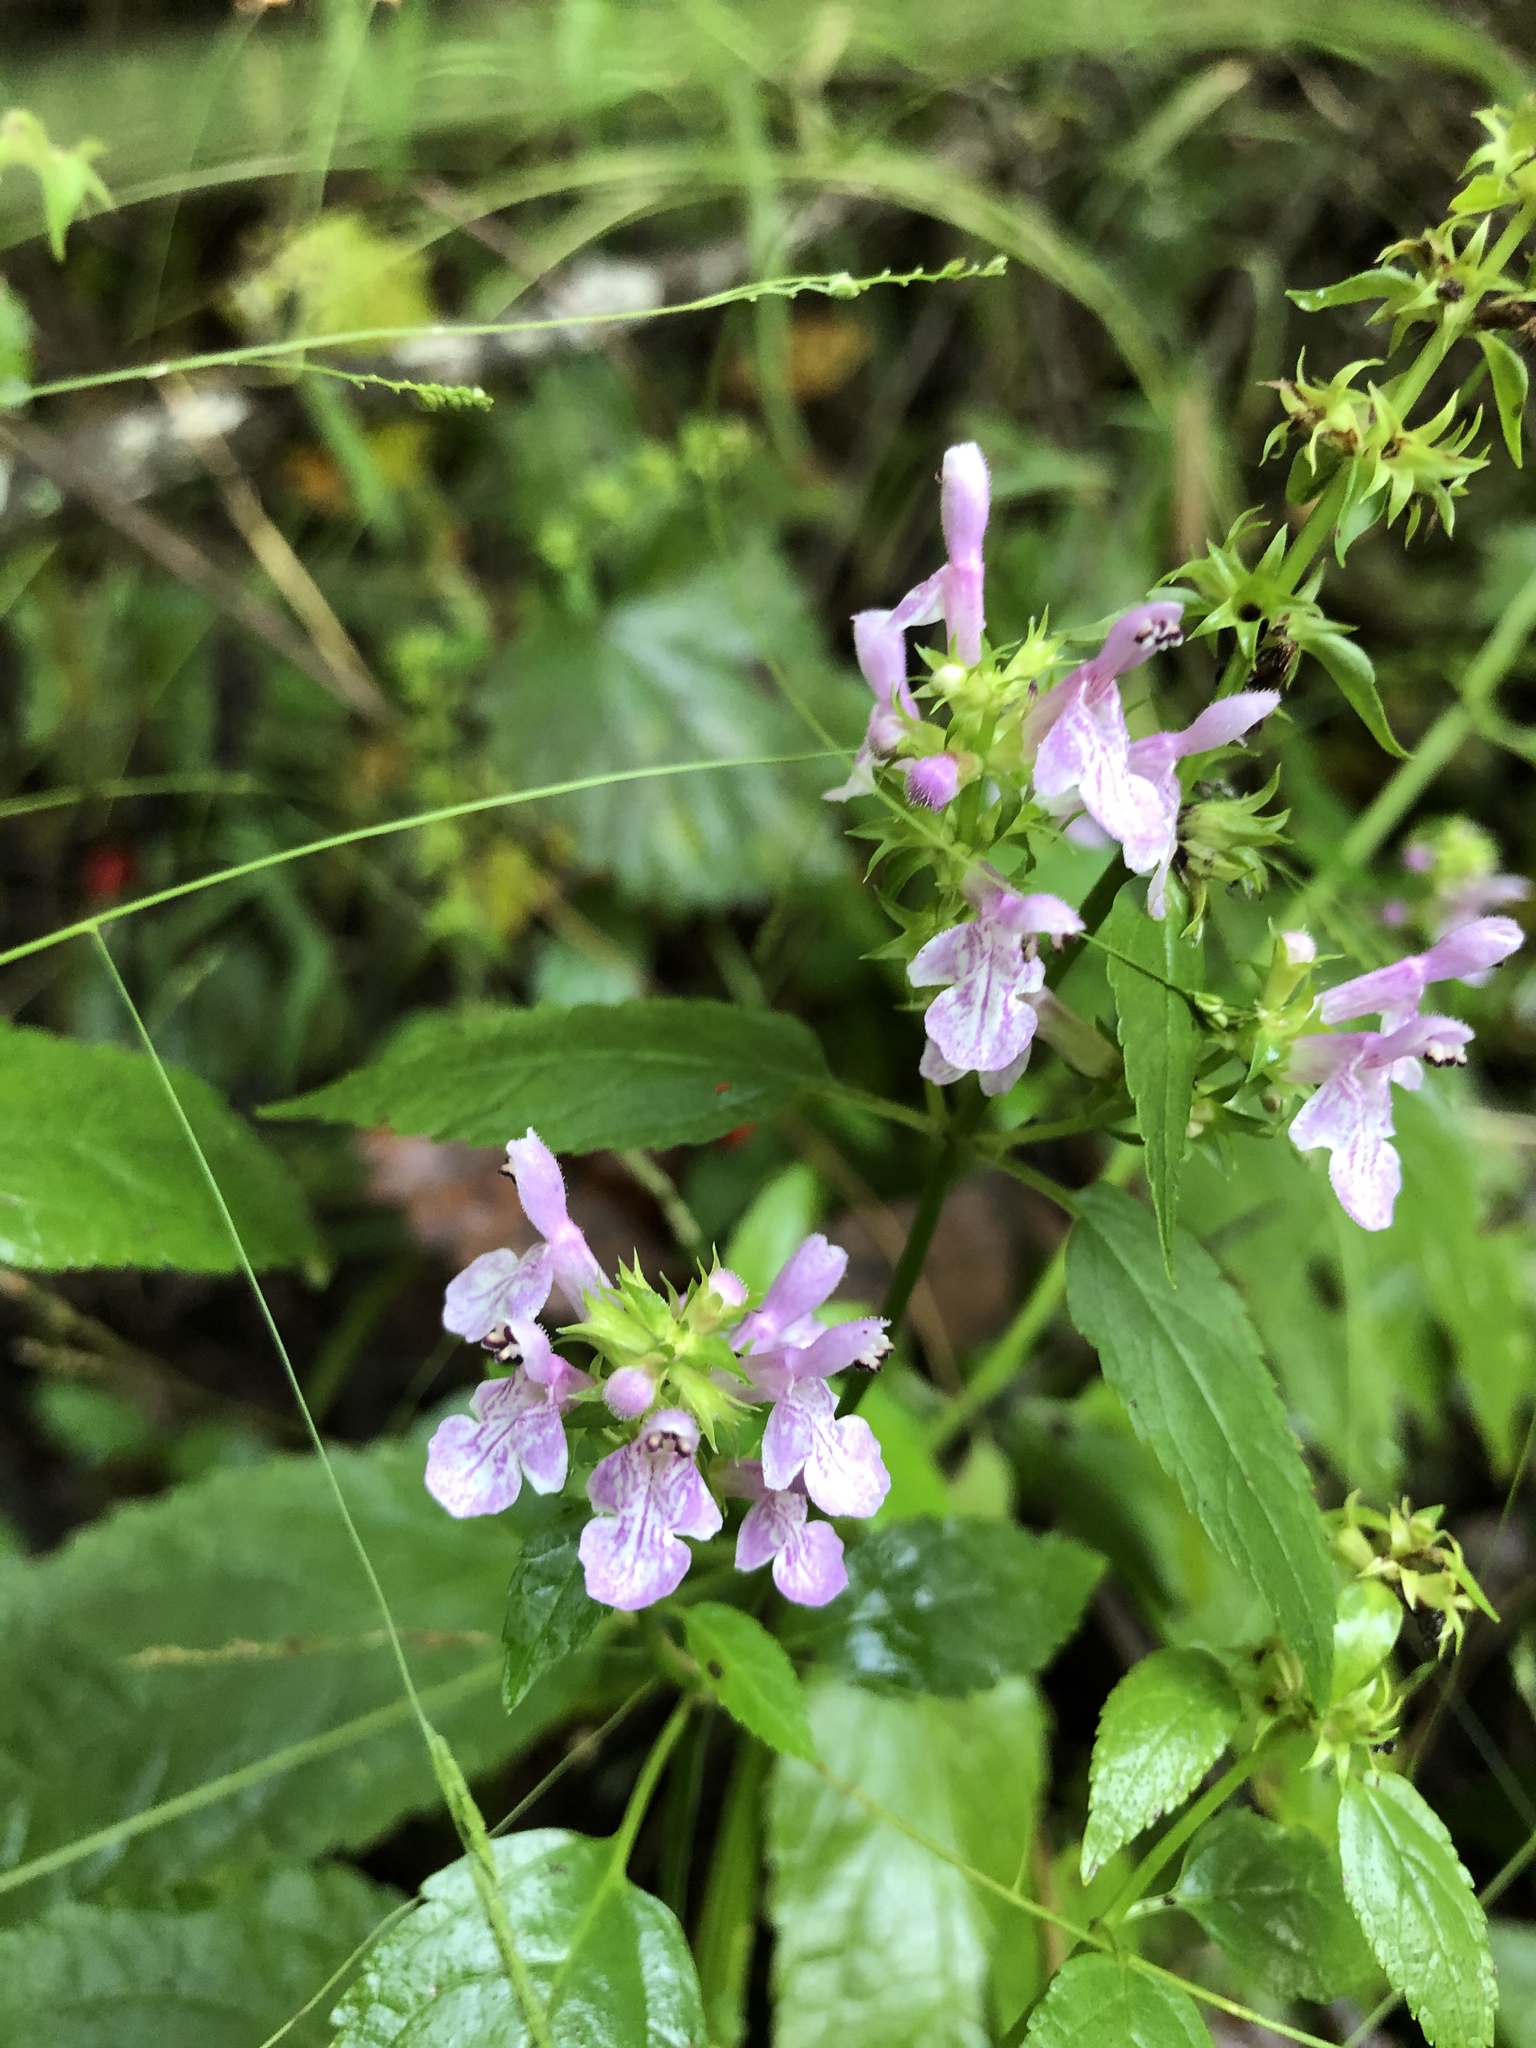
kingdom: Plantae
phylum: Tracheophyta
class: Magnoliopsida
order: Lamiales
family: Lamiaceae
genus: Stachys
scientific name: Stachys tenuifolia
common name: Smooth hedge-nettle
